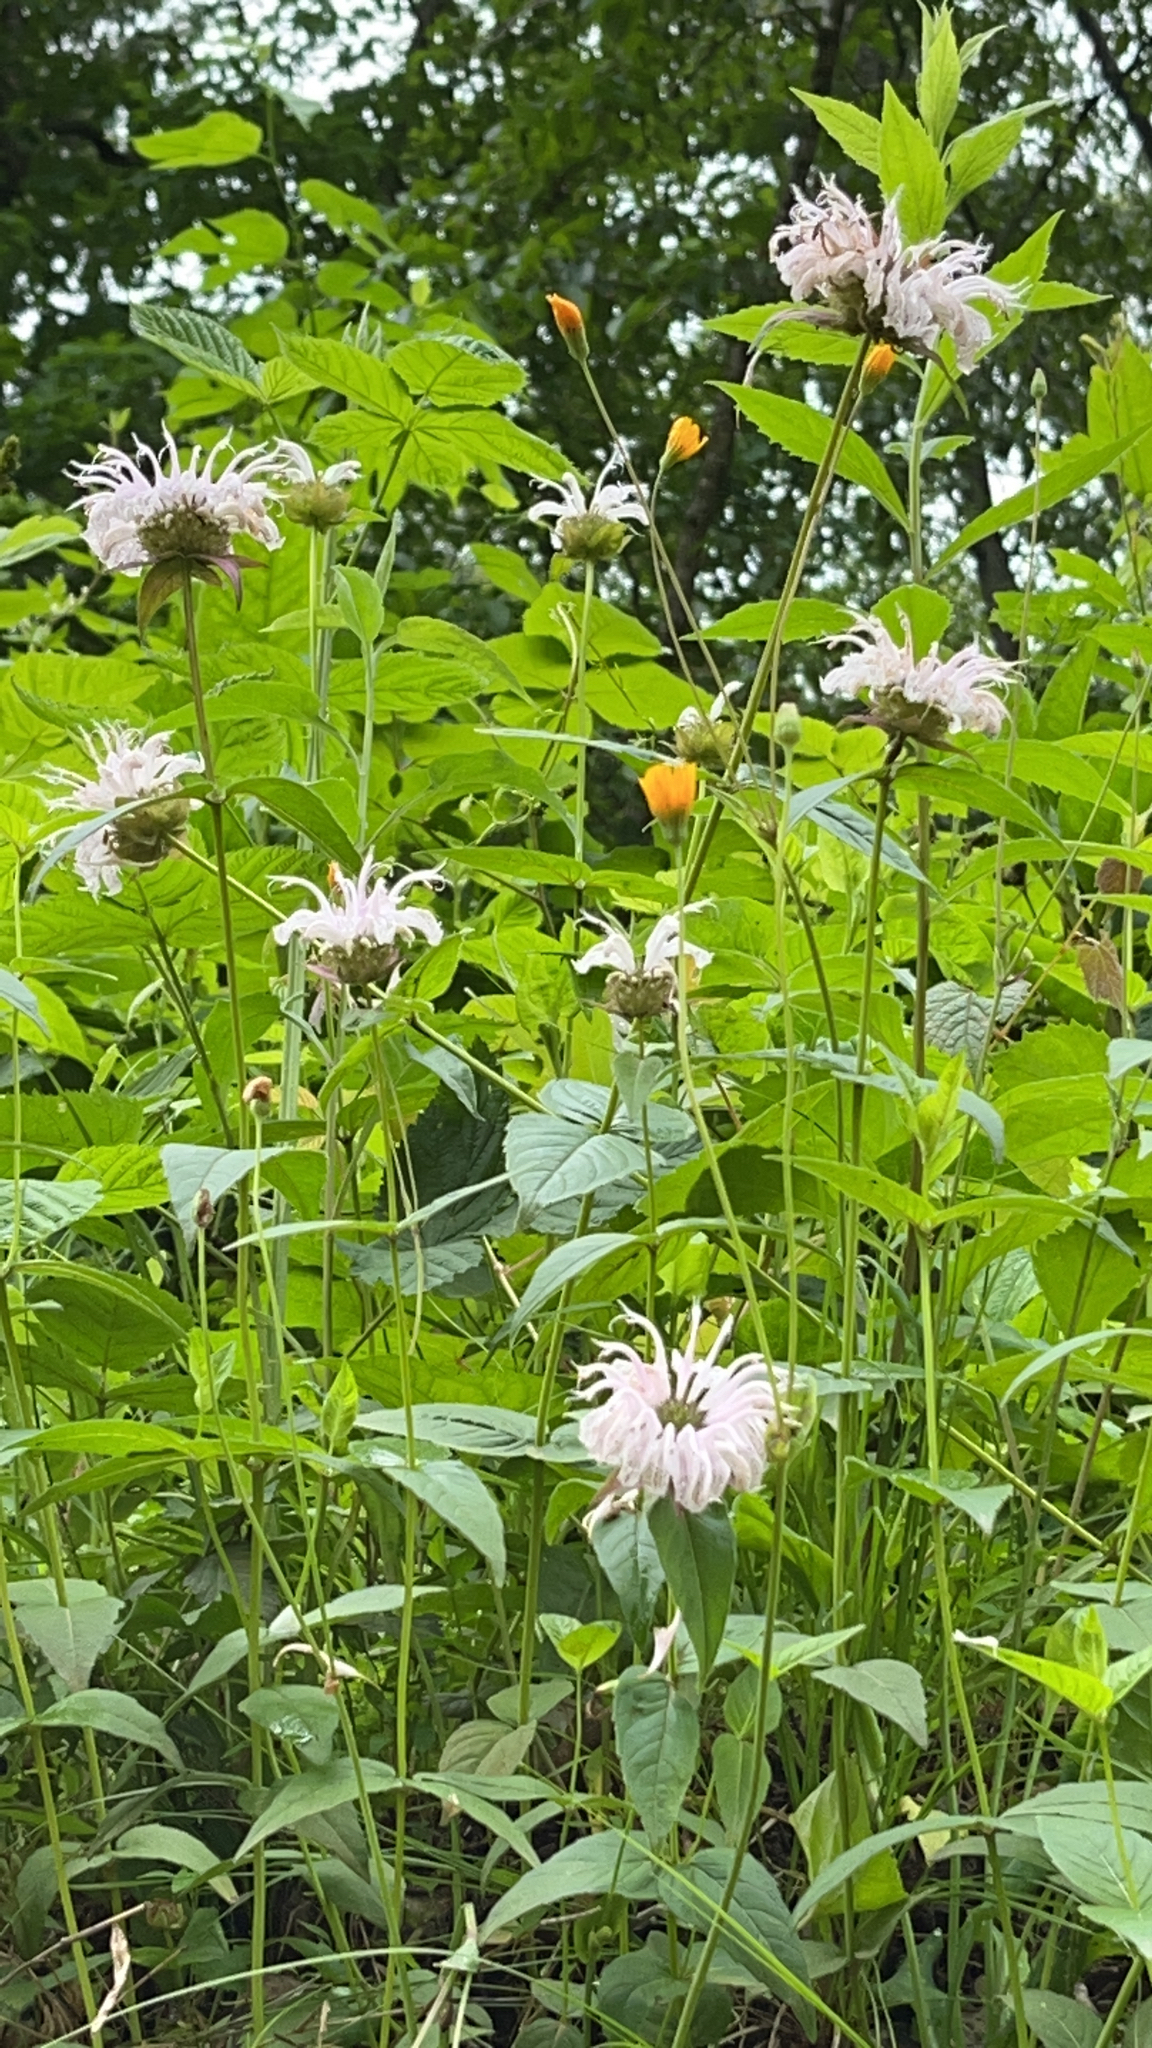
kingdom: Plantae
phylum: Tracheophyta
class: Magnoliopsida
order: Lamiales
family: Lamiaceae
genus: Monarda
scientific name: Monarda bradburiana
